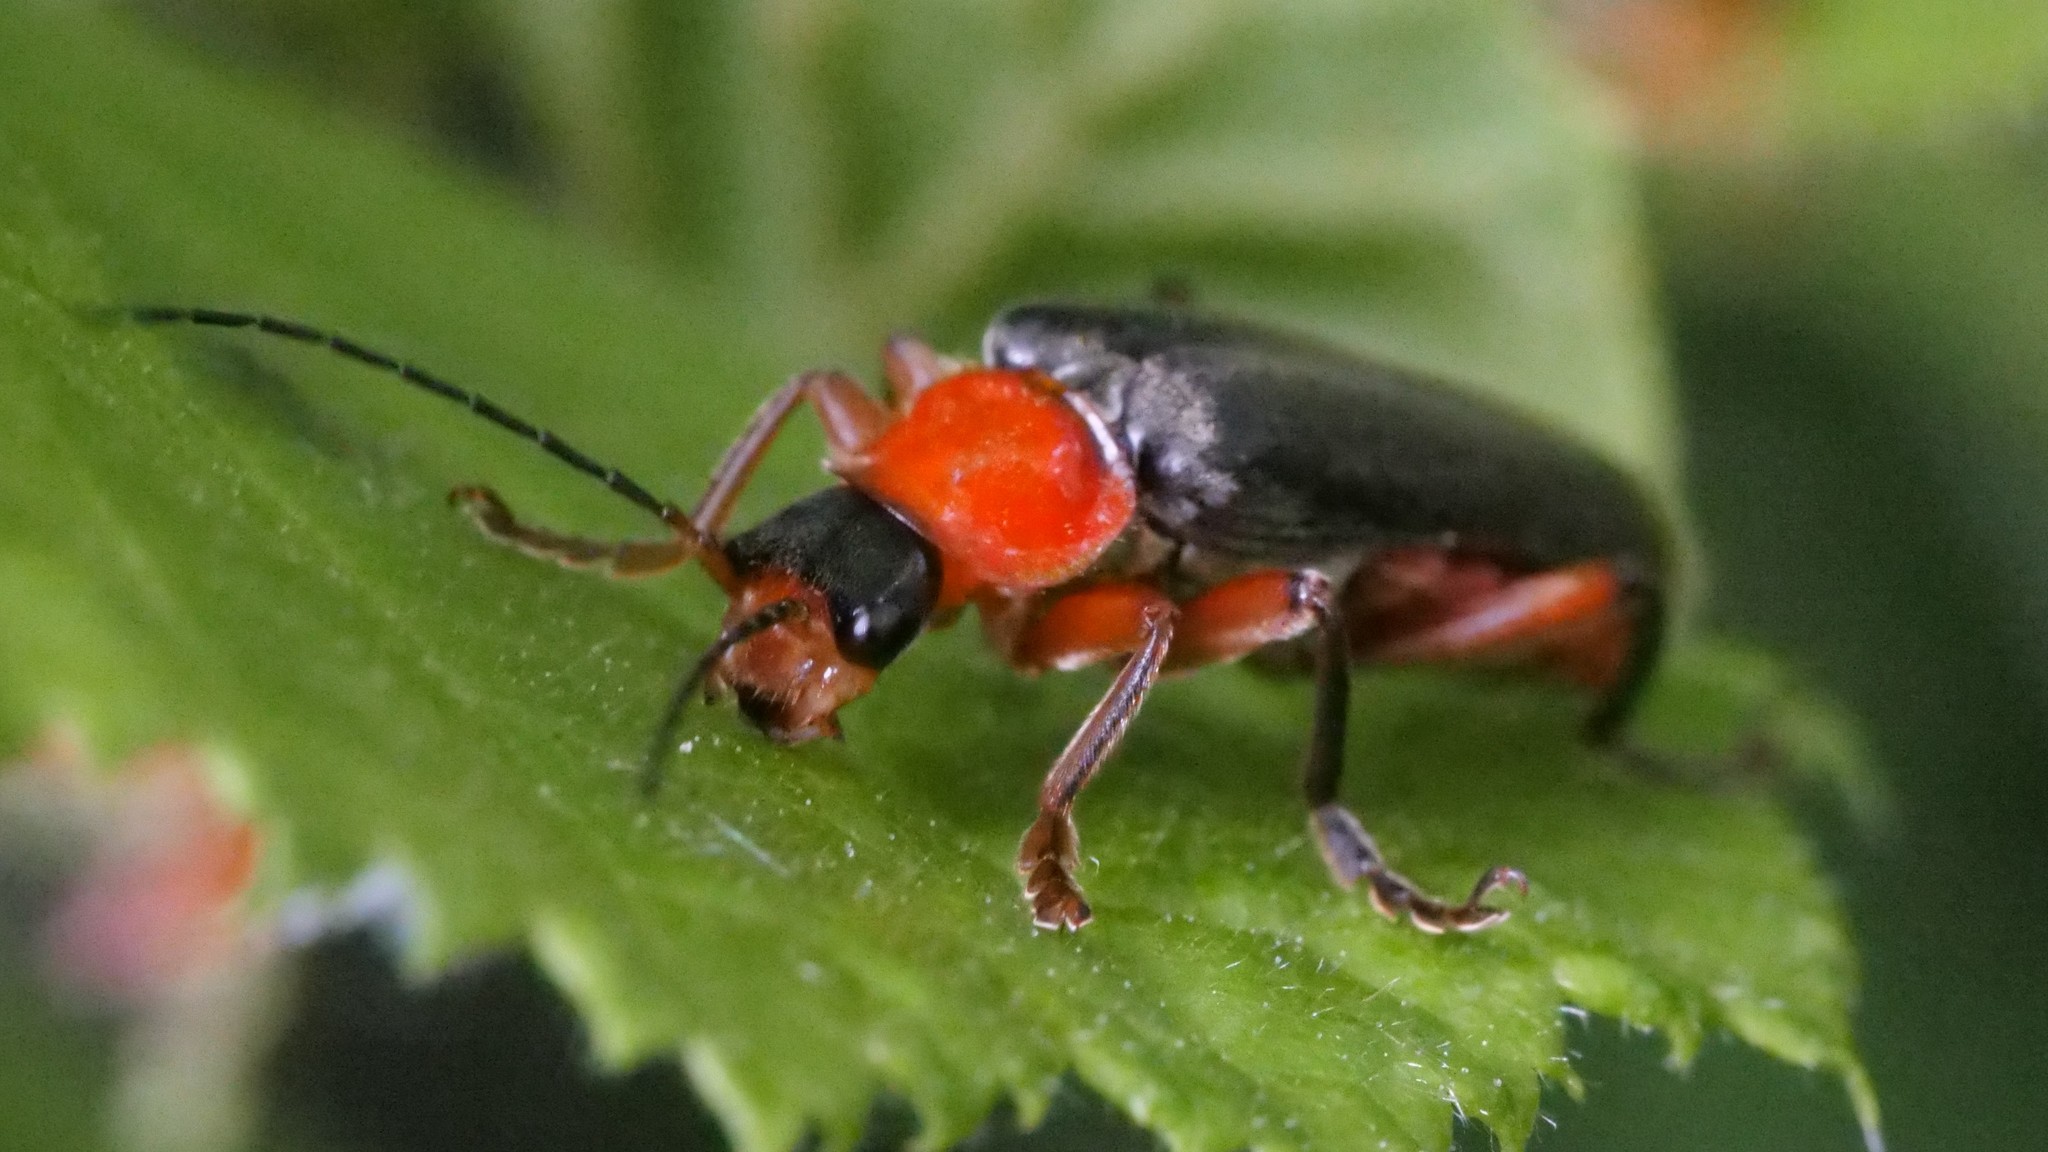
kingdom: Animalia
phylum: Arthropoda
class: Insecta
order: Coleoptera
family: Cantharidae
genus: Cantharis
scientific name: Cantharis pellucida
